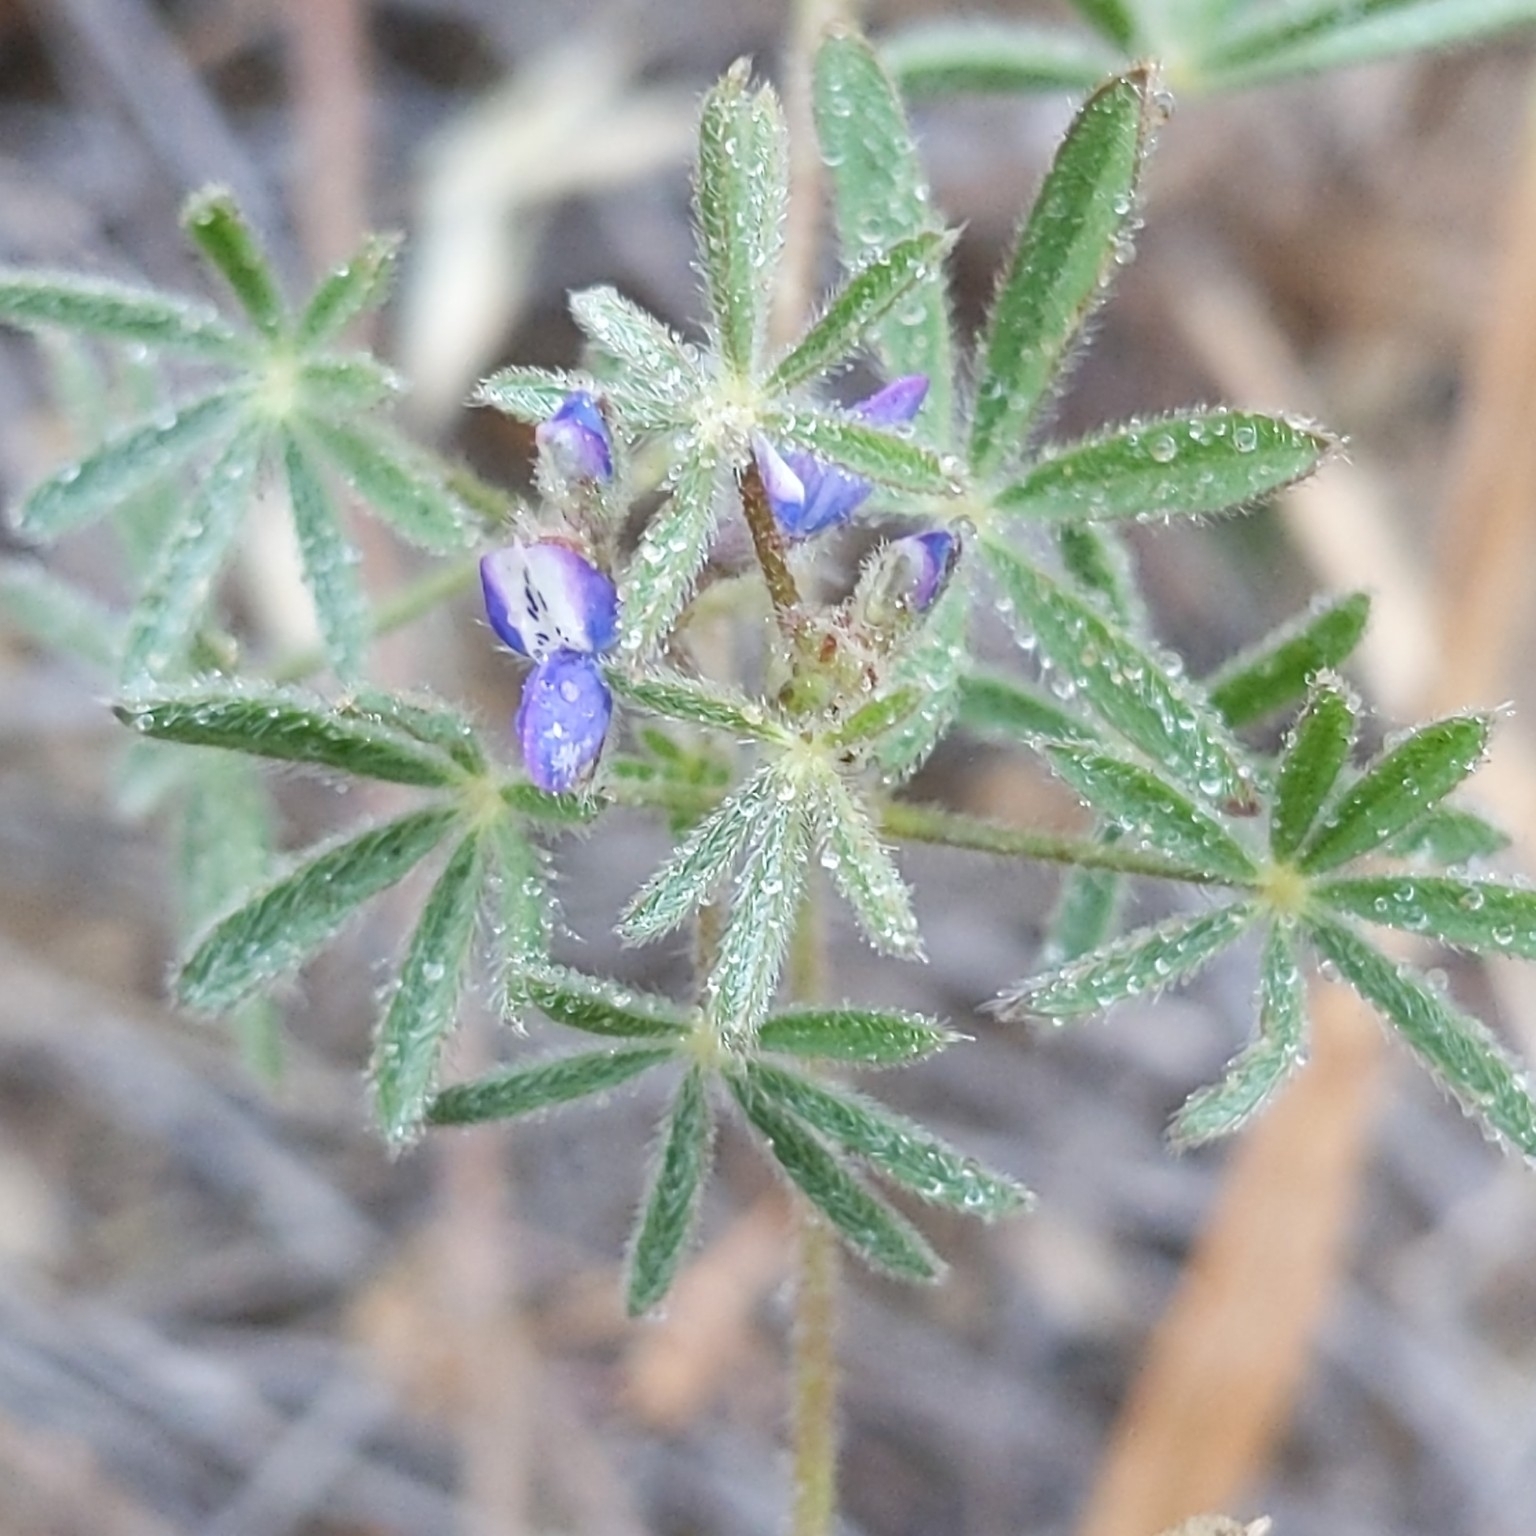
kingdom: Plantae
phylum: Tracheophyta
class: Magnoliopsida
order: Fabales
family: Fabaceae
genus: Lupinus
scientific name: Lupinus bicolor
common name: Miniature lupine
